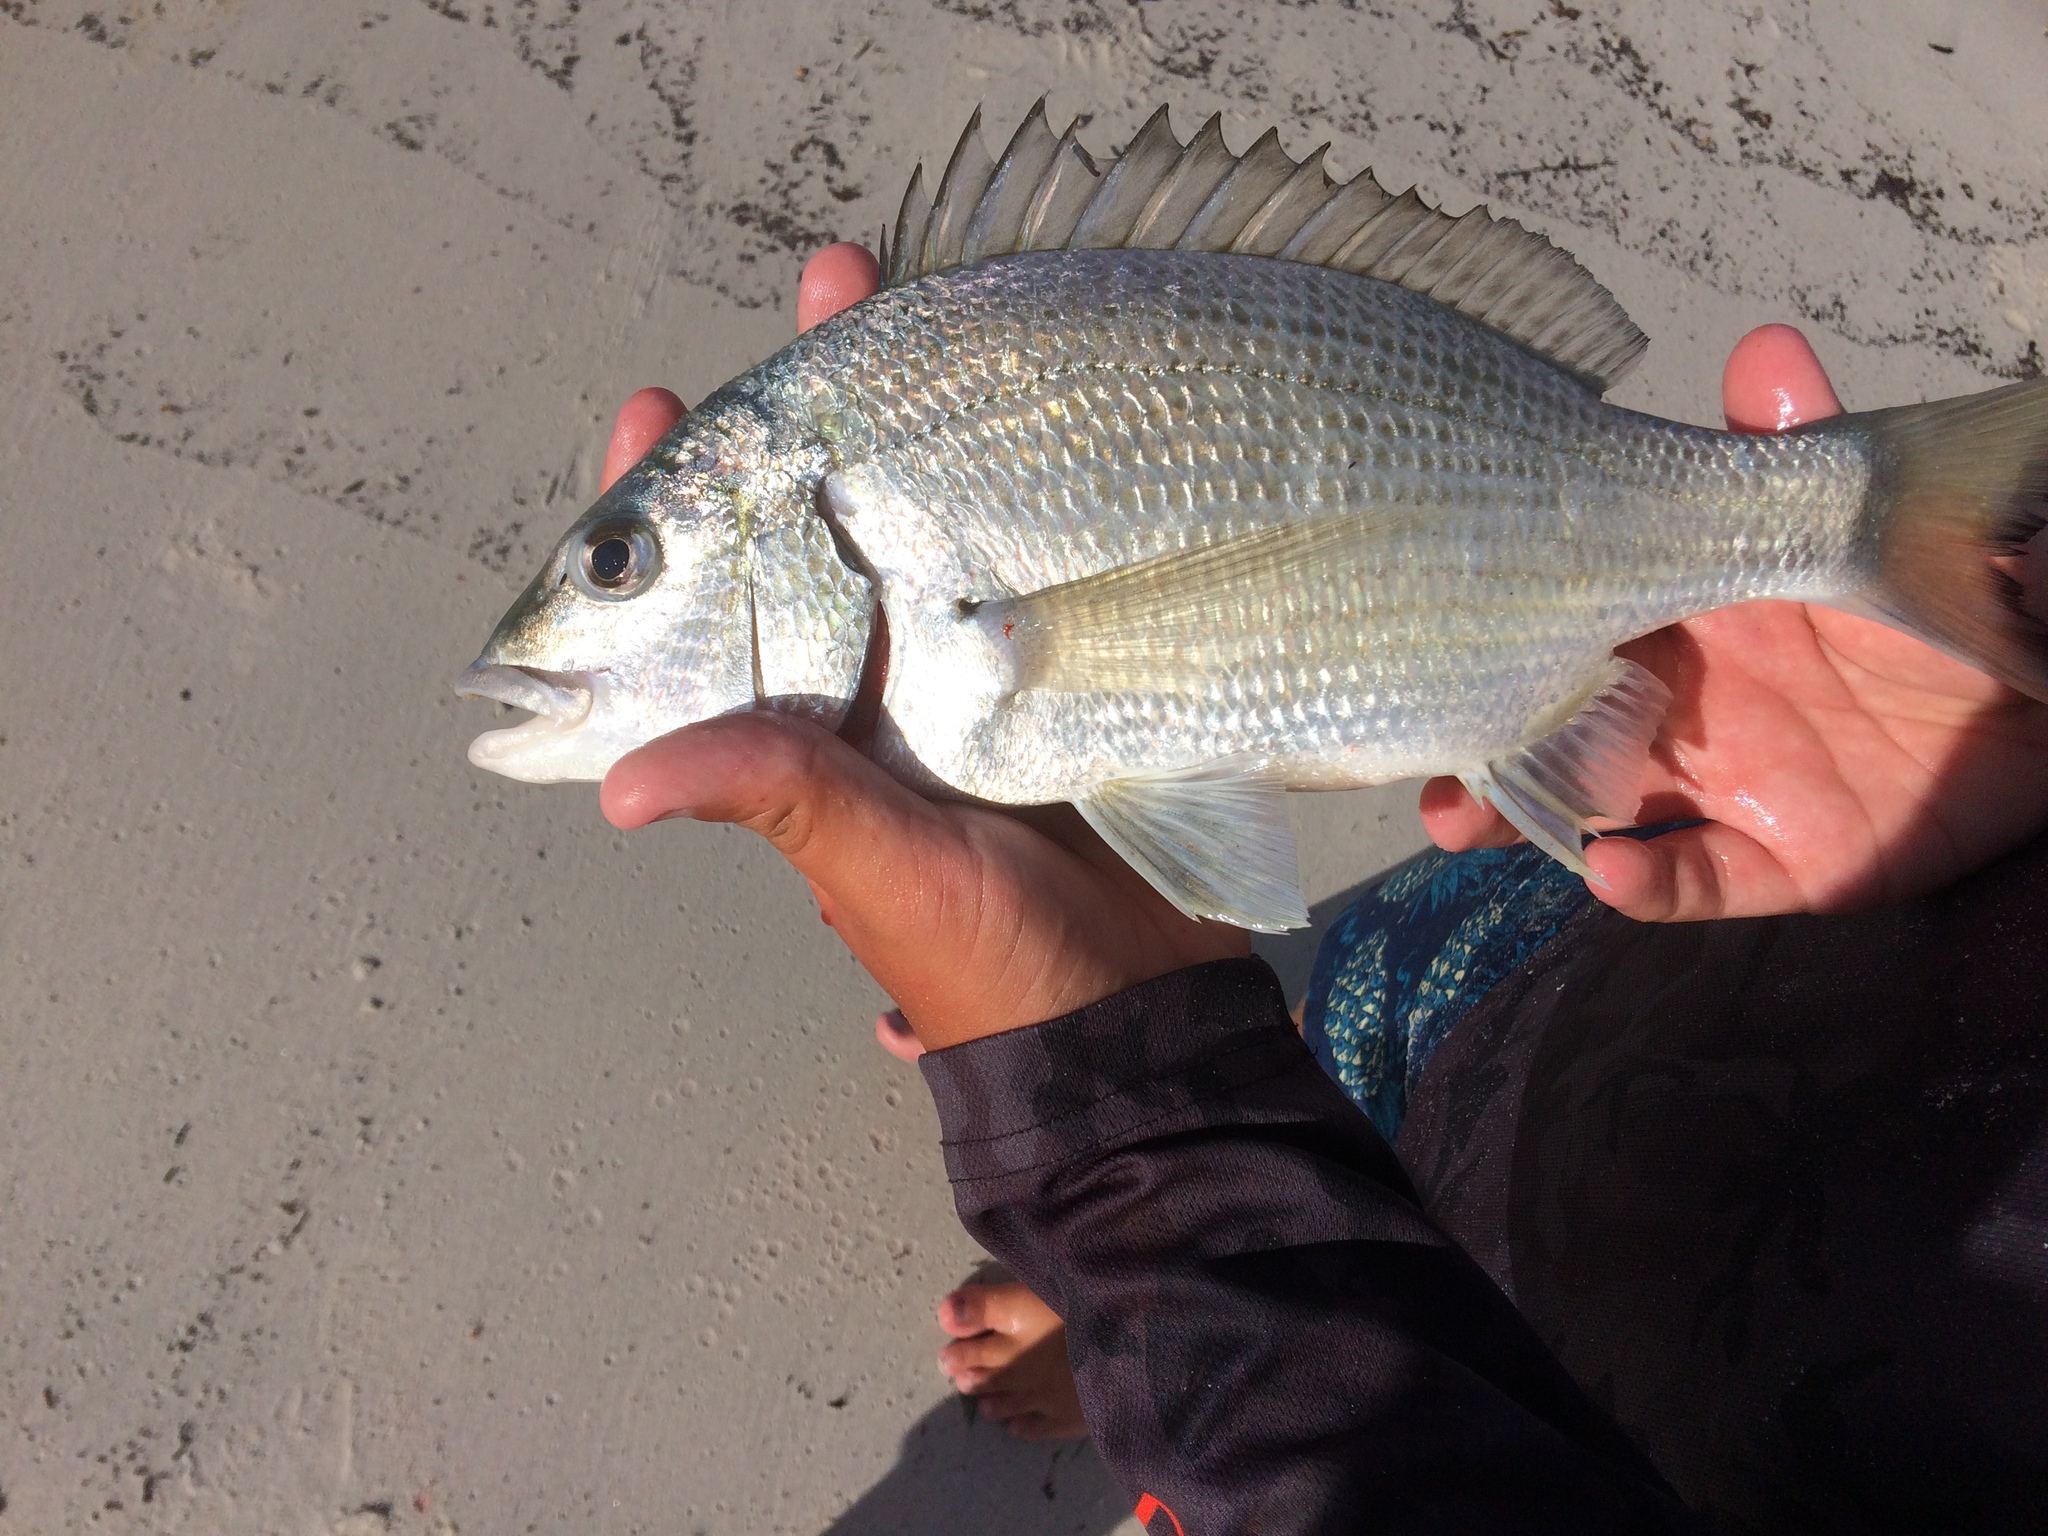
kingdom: Animalia
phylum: Chordata
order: Perciformes
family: Sparidae
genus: Acanthopagrus
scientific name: Acanthopagrus butcheri
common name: Black bream
